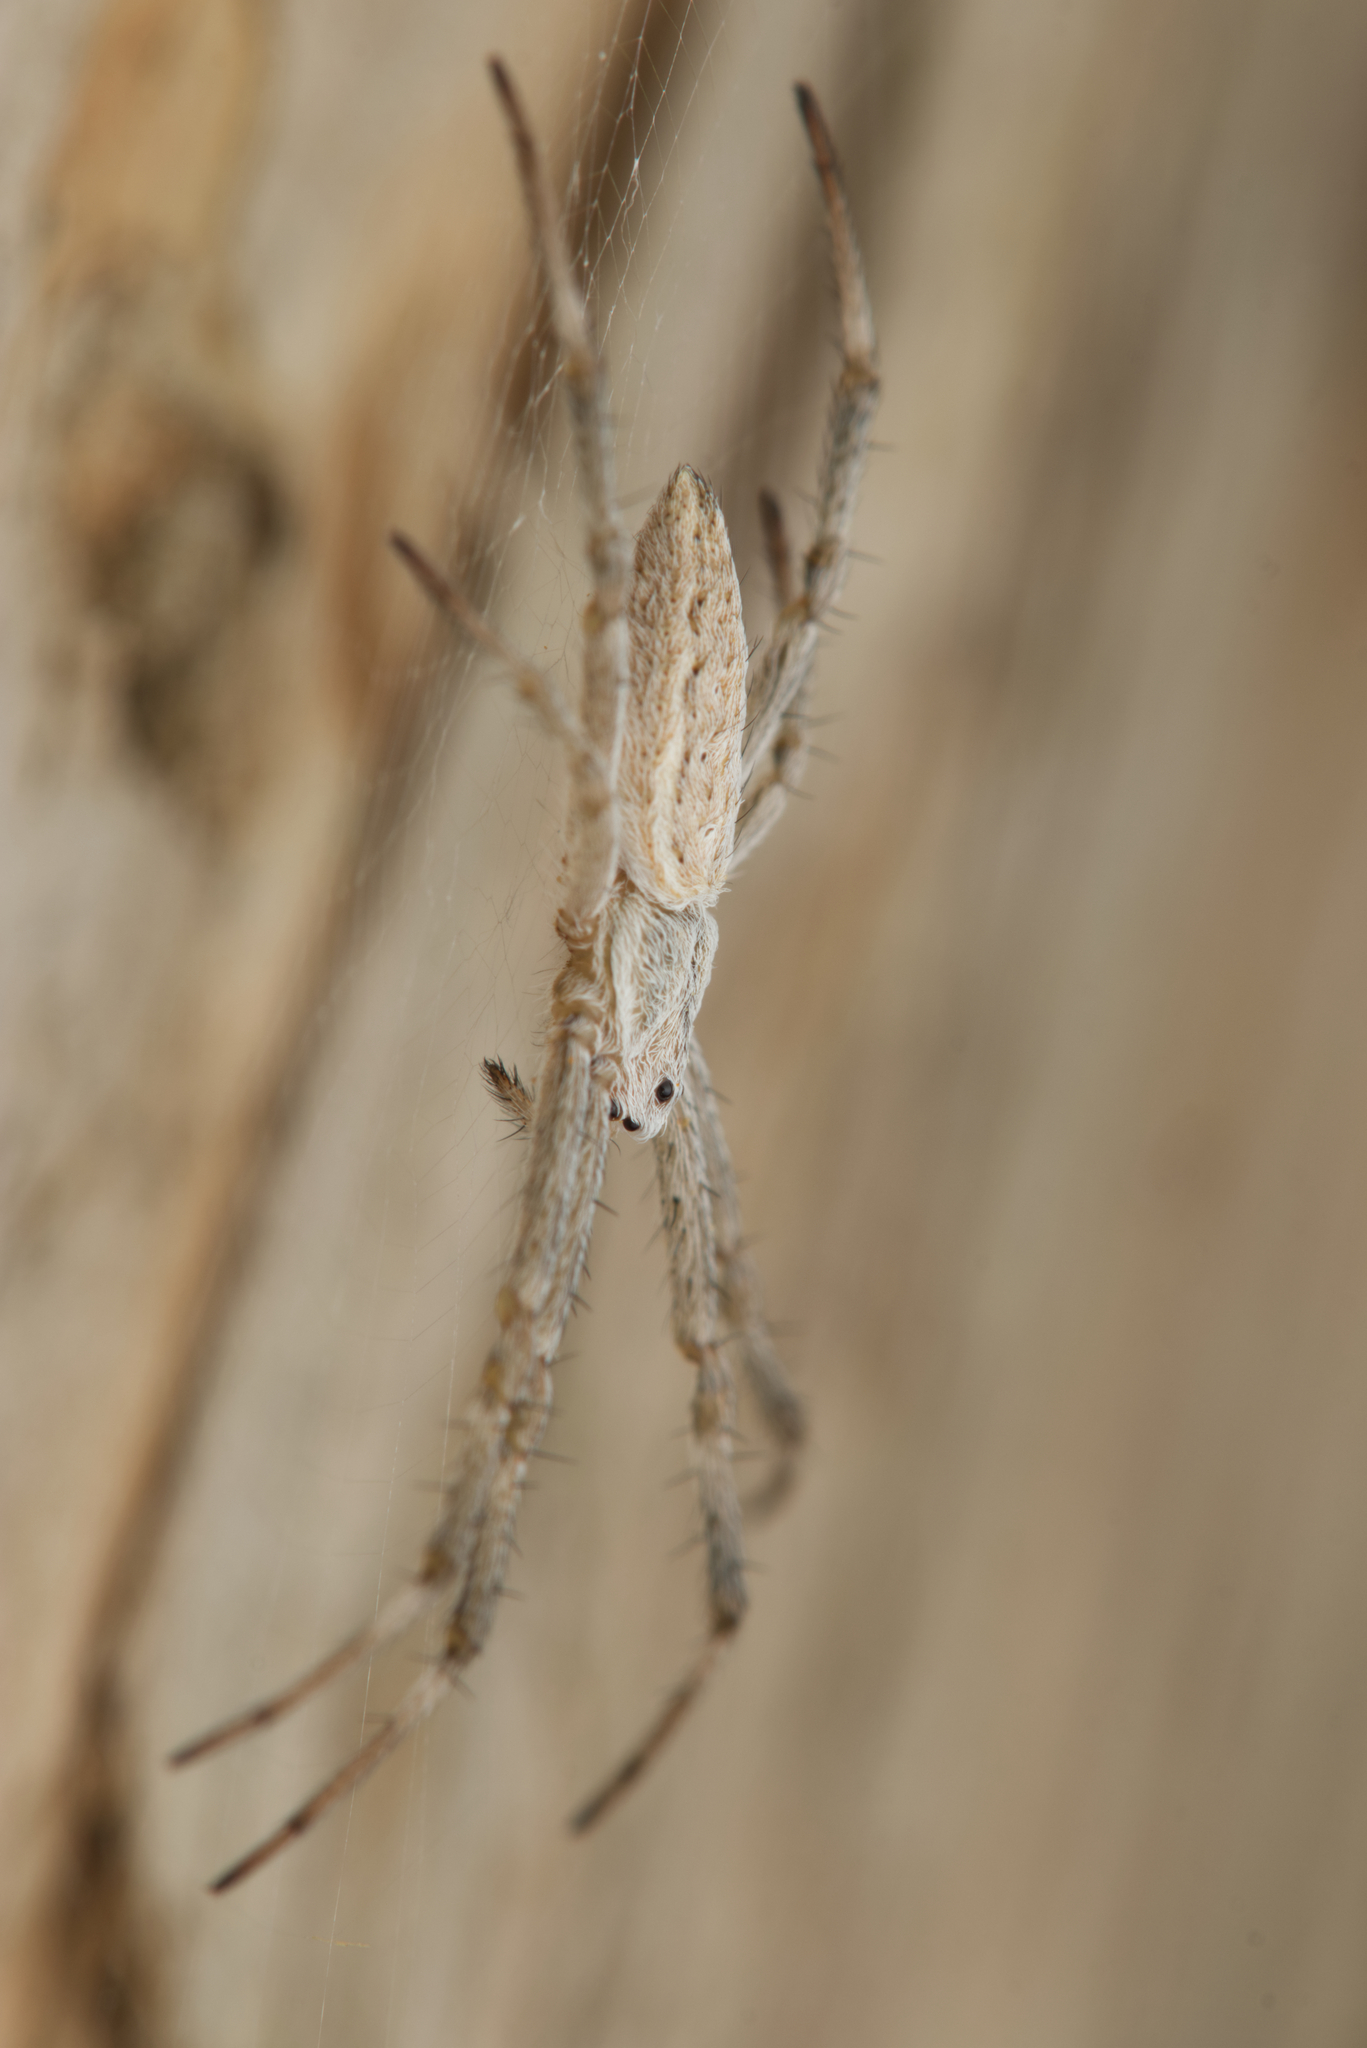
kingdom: Animalia
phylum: Arthropoda
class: Arachnida
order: Araneae
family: Araneidae
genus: Argiope
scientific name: Argiope ocyaloides
